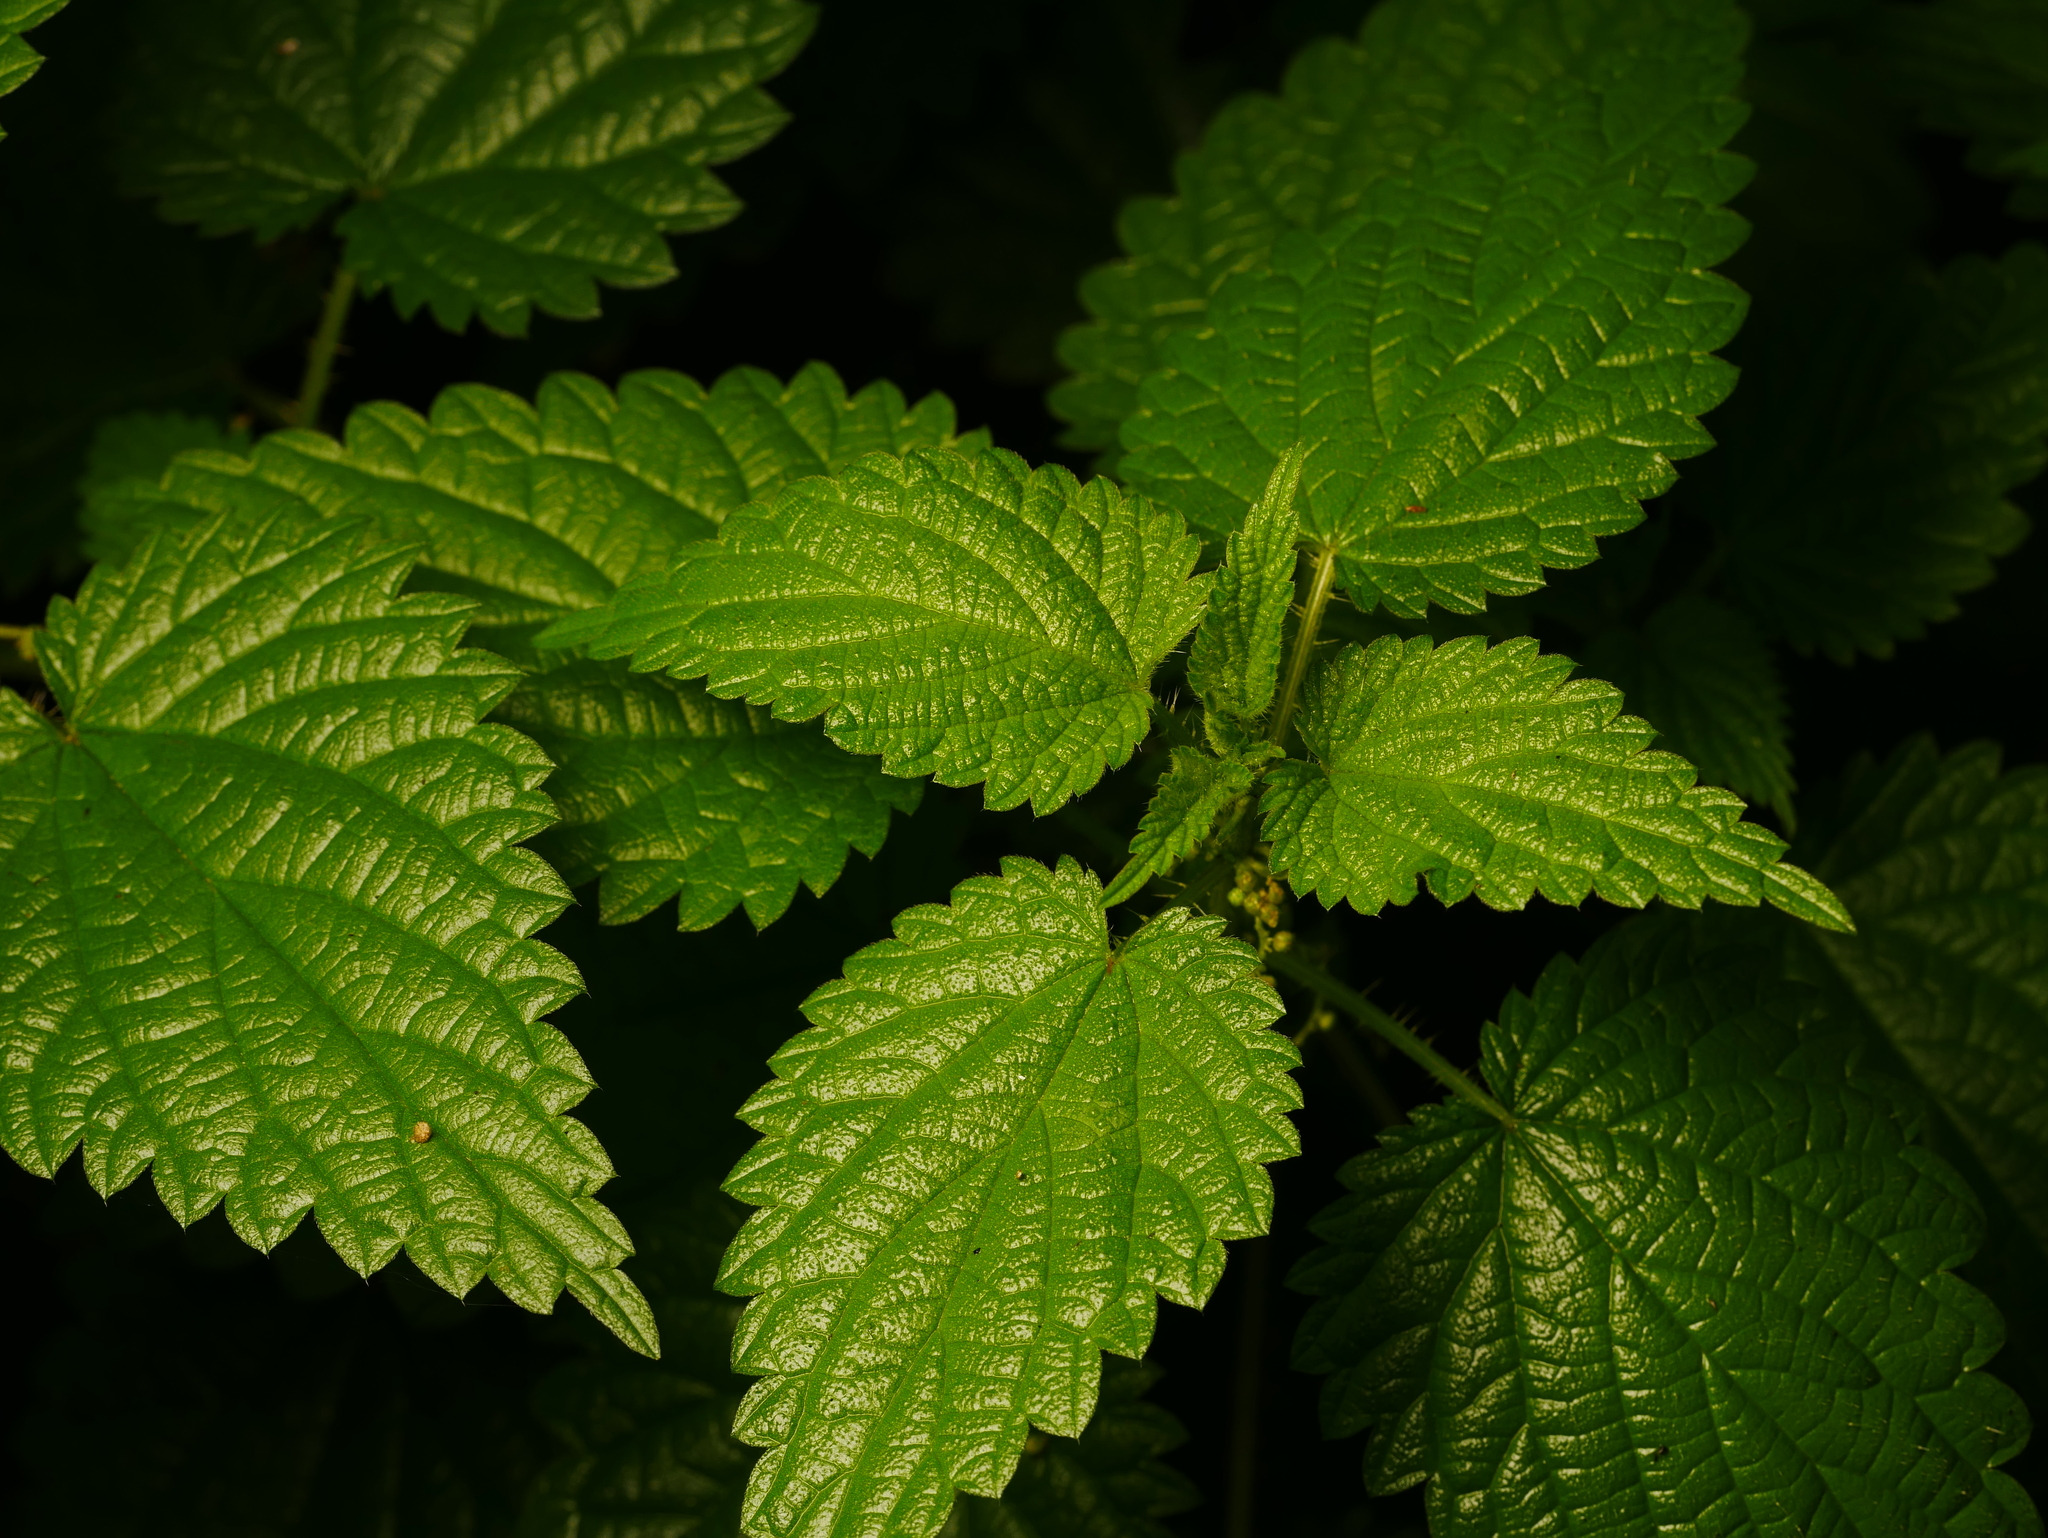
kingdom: Plantae
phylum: Tracheophyta
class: Magnoliopsida
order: Rosales
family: Urticaceae
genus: Urtica
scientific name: Urtica dioica
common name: Common nettle
